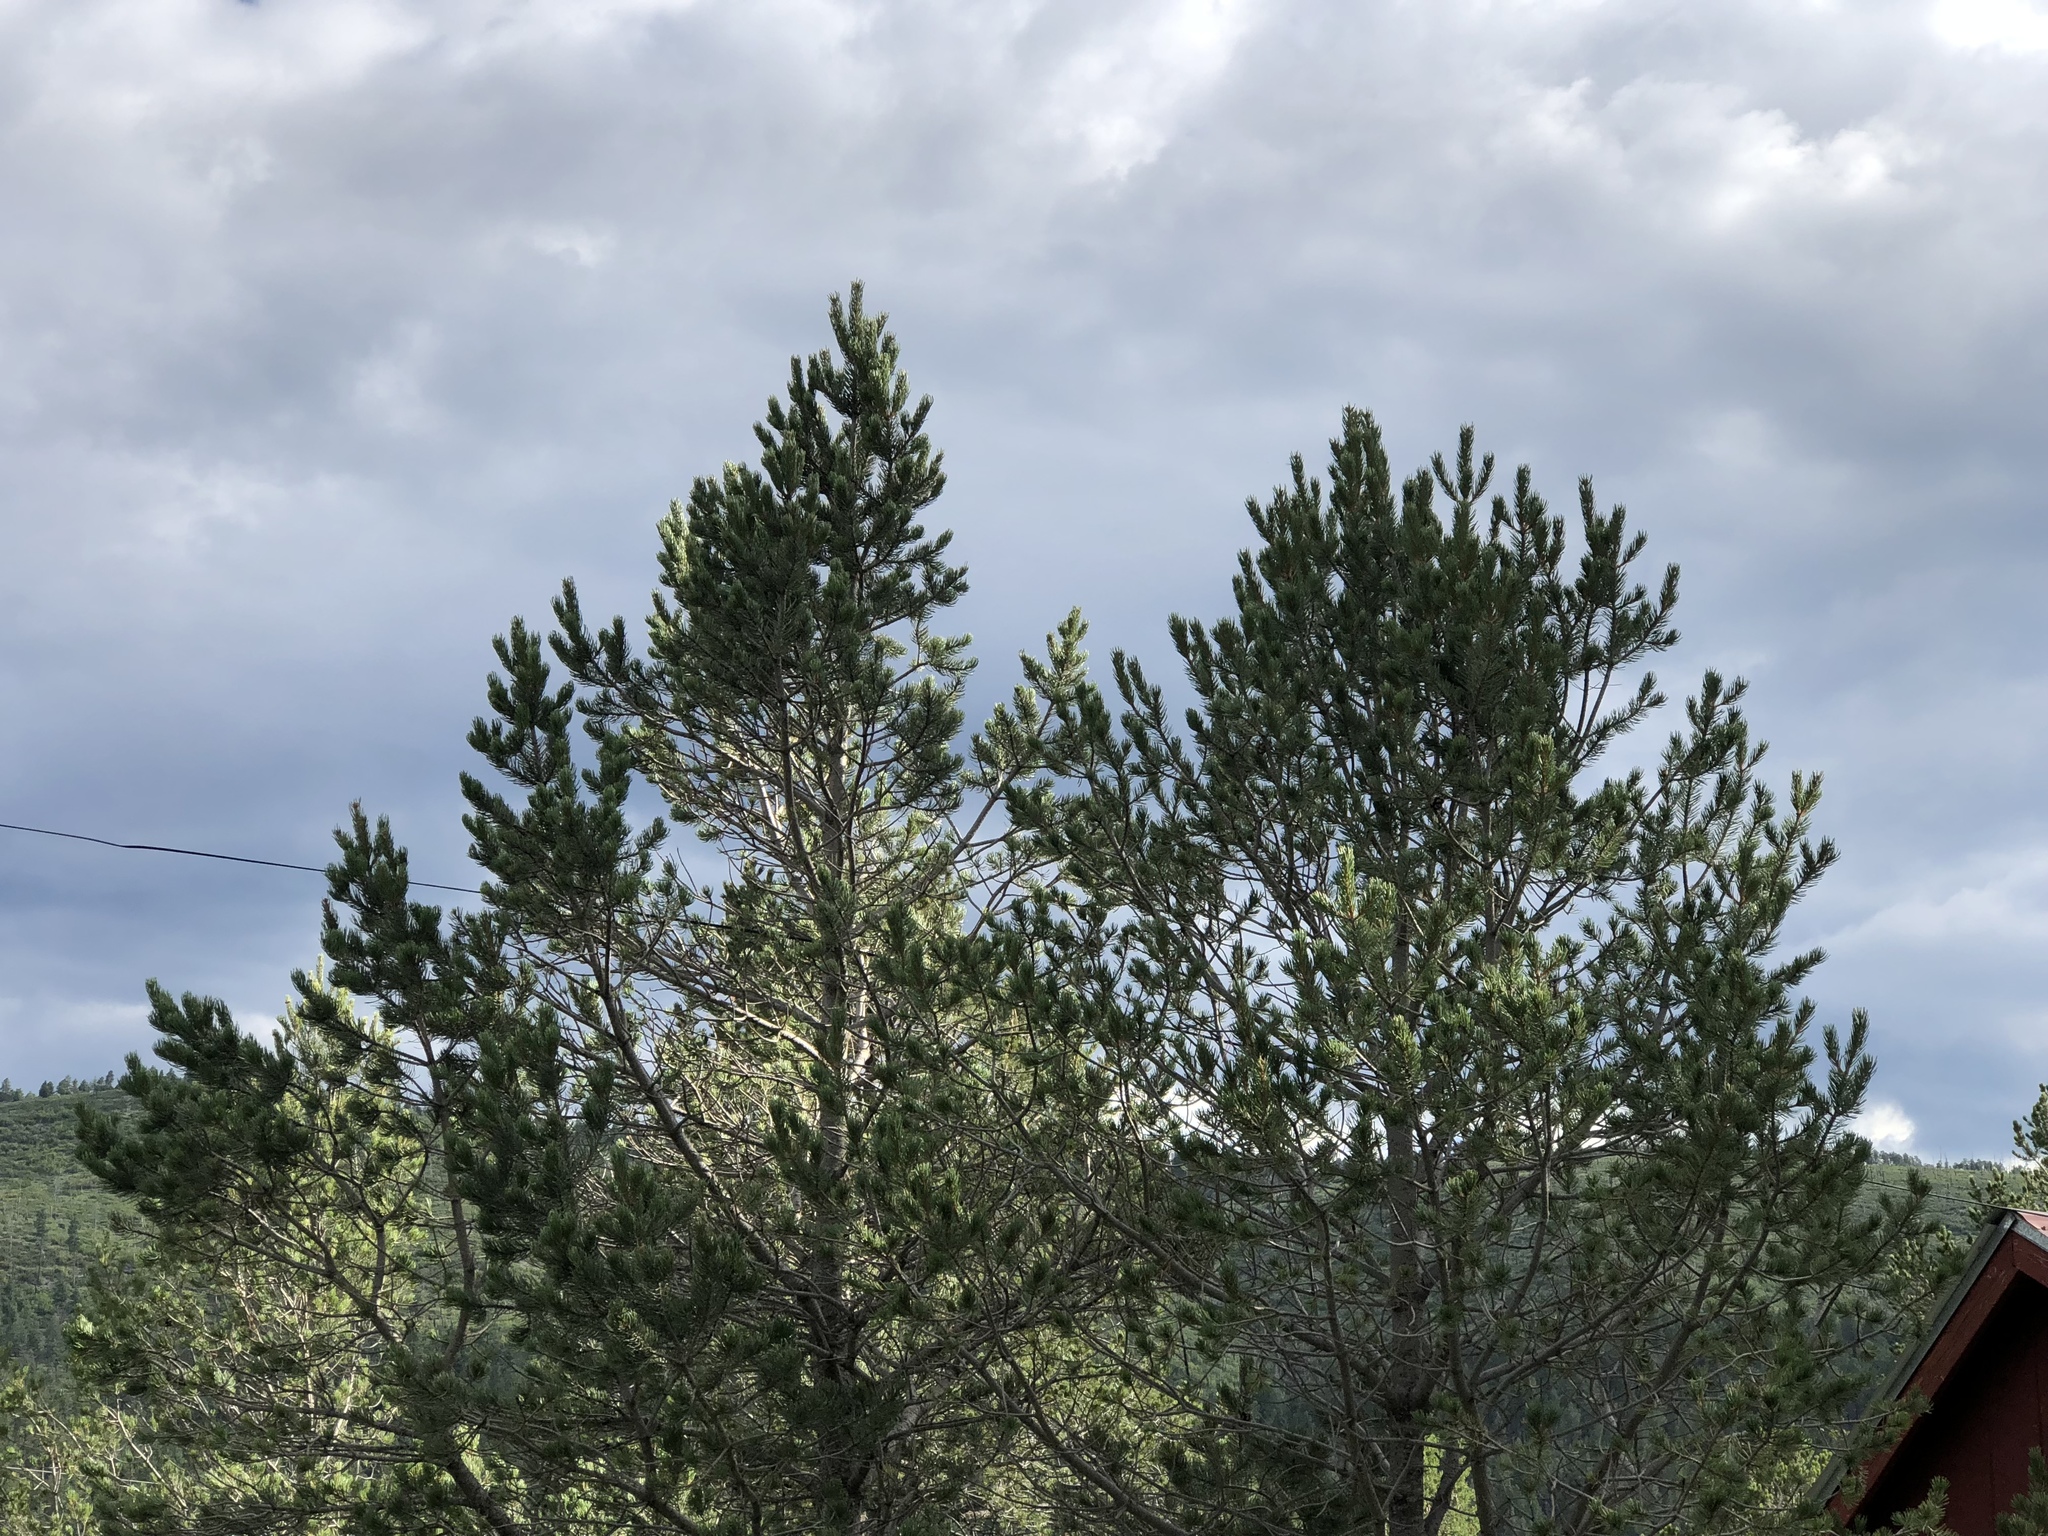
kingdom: Plantae
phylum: Tracheophyta
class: Pinopsida
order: Pinales
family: Pinaceae
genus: Pinus
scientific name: Pinus edulis
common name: Colorado pinyon
